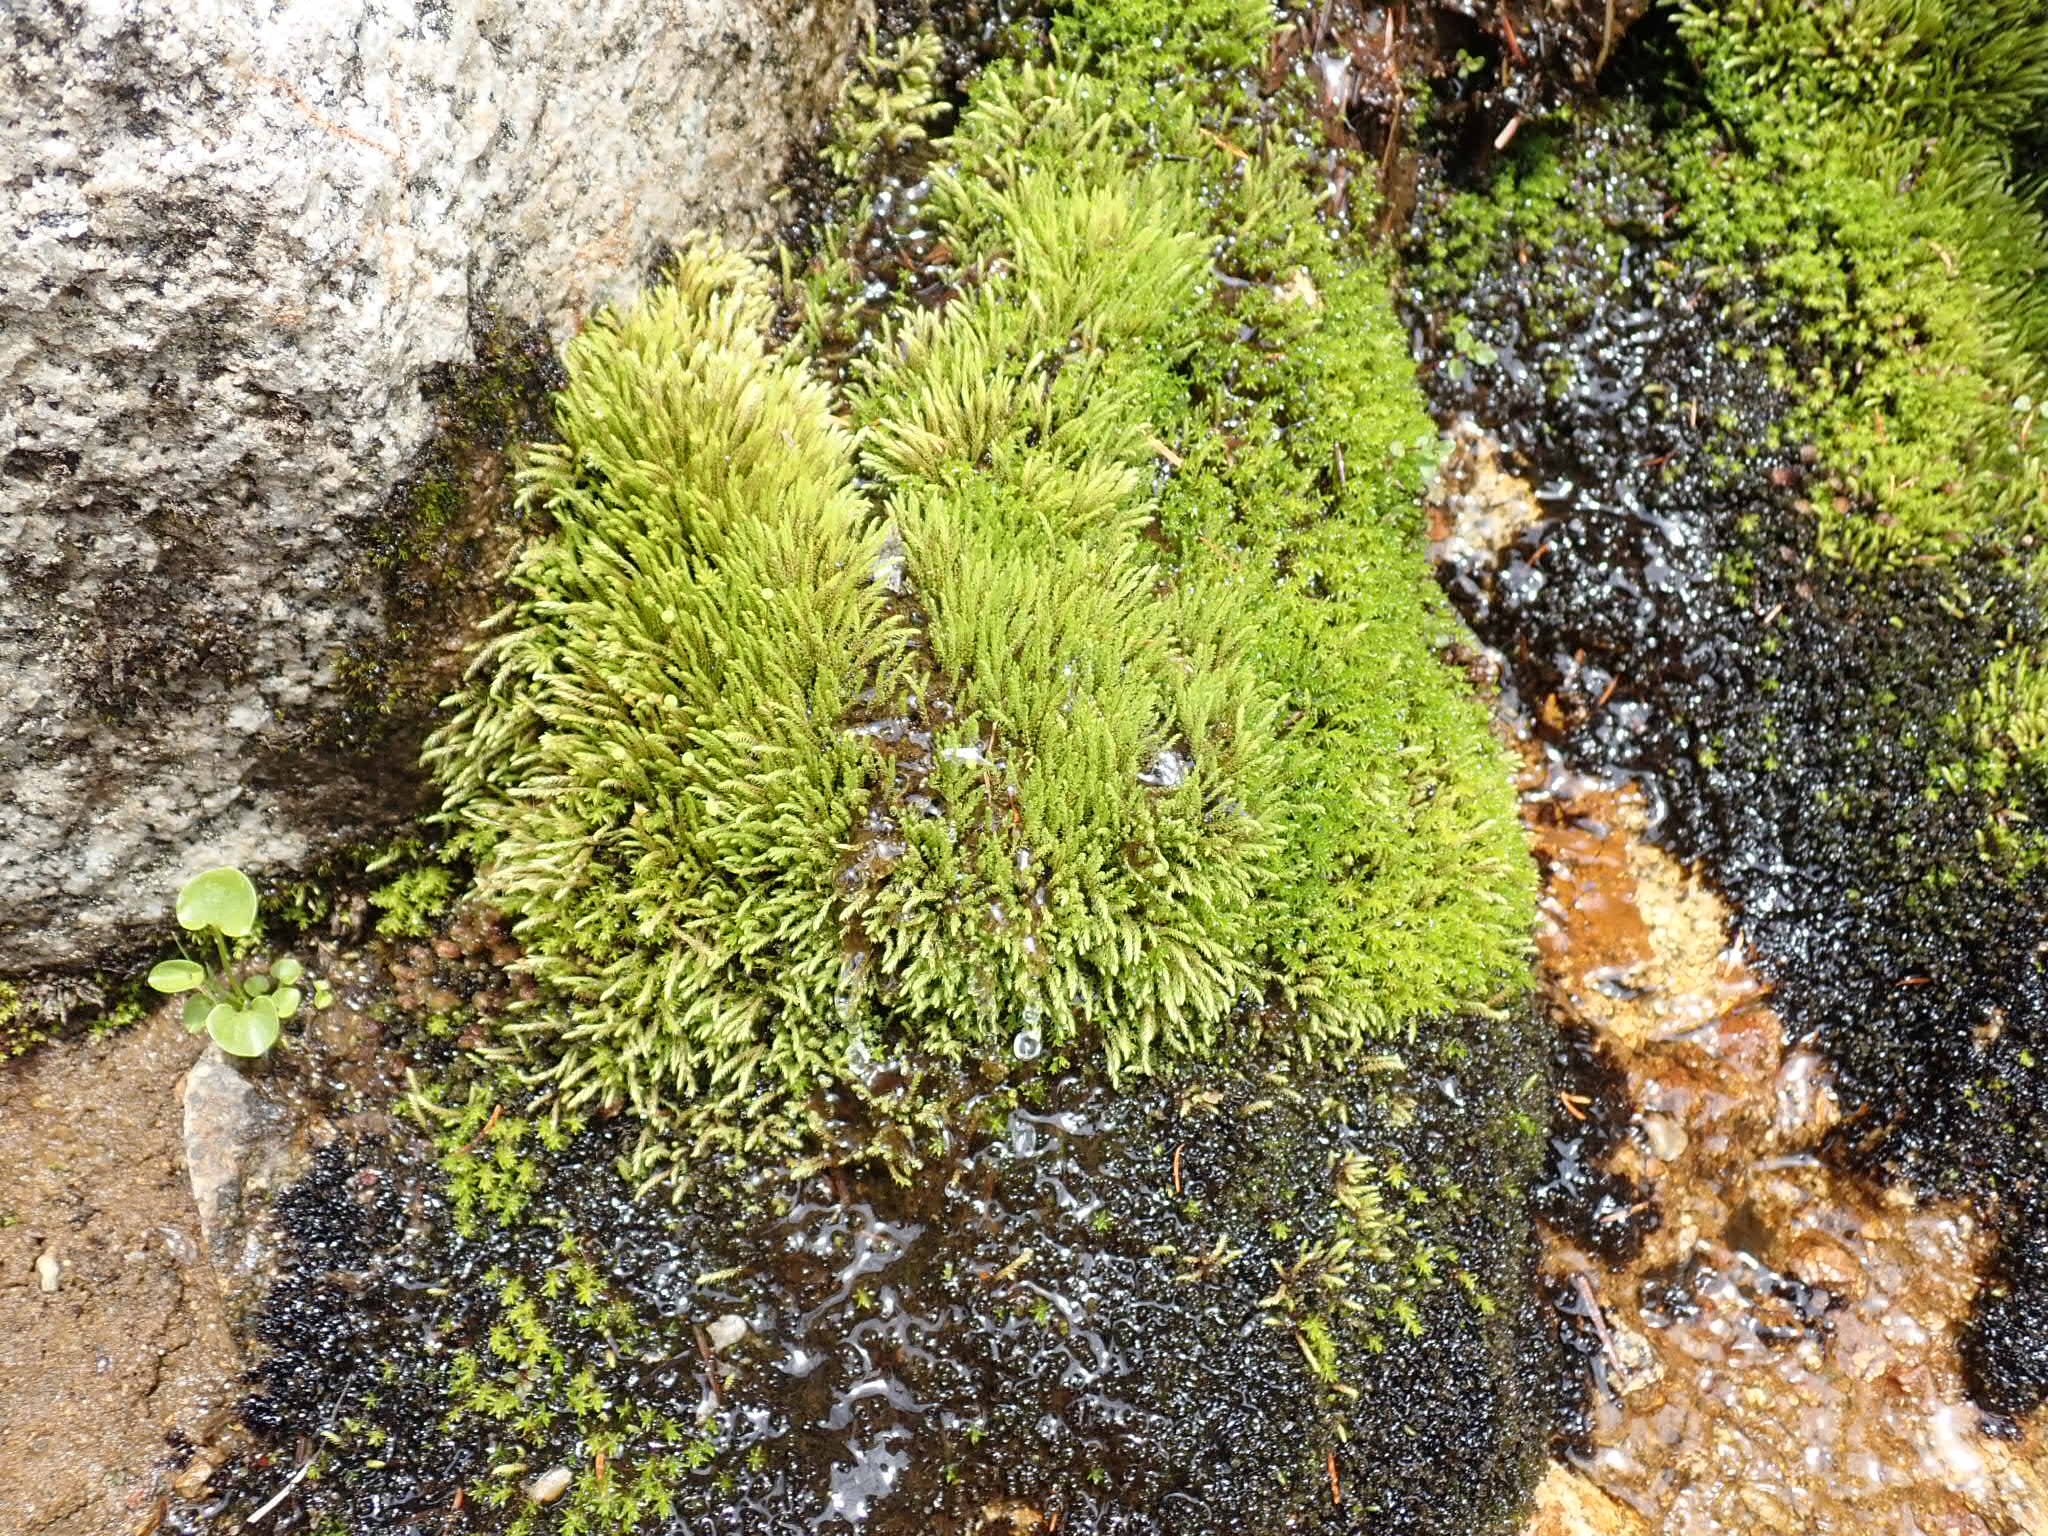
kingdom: Plantae
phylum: Bryophyta
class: Bryopsida
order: Bartramiales
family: Bartramiaceae
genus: Philonotis
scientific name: Philonotis fontana
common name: Fountain apple-moss
